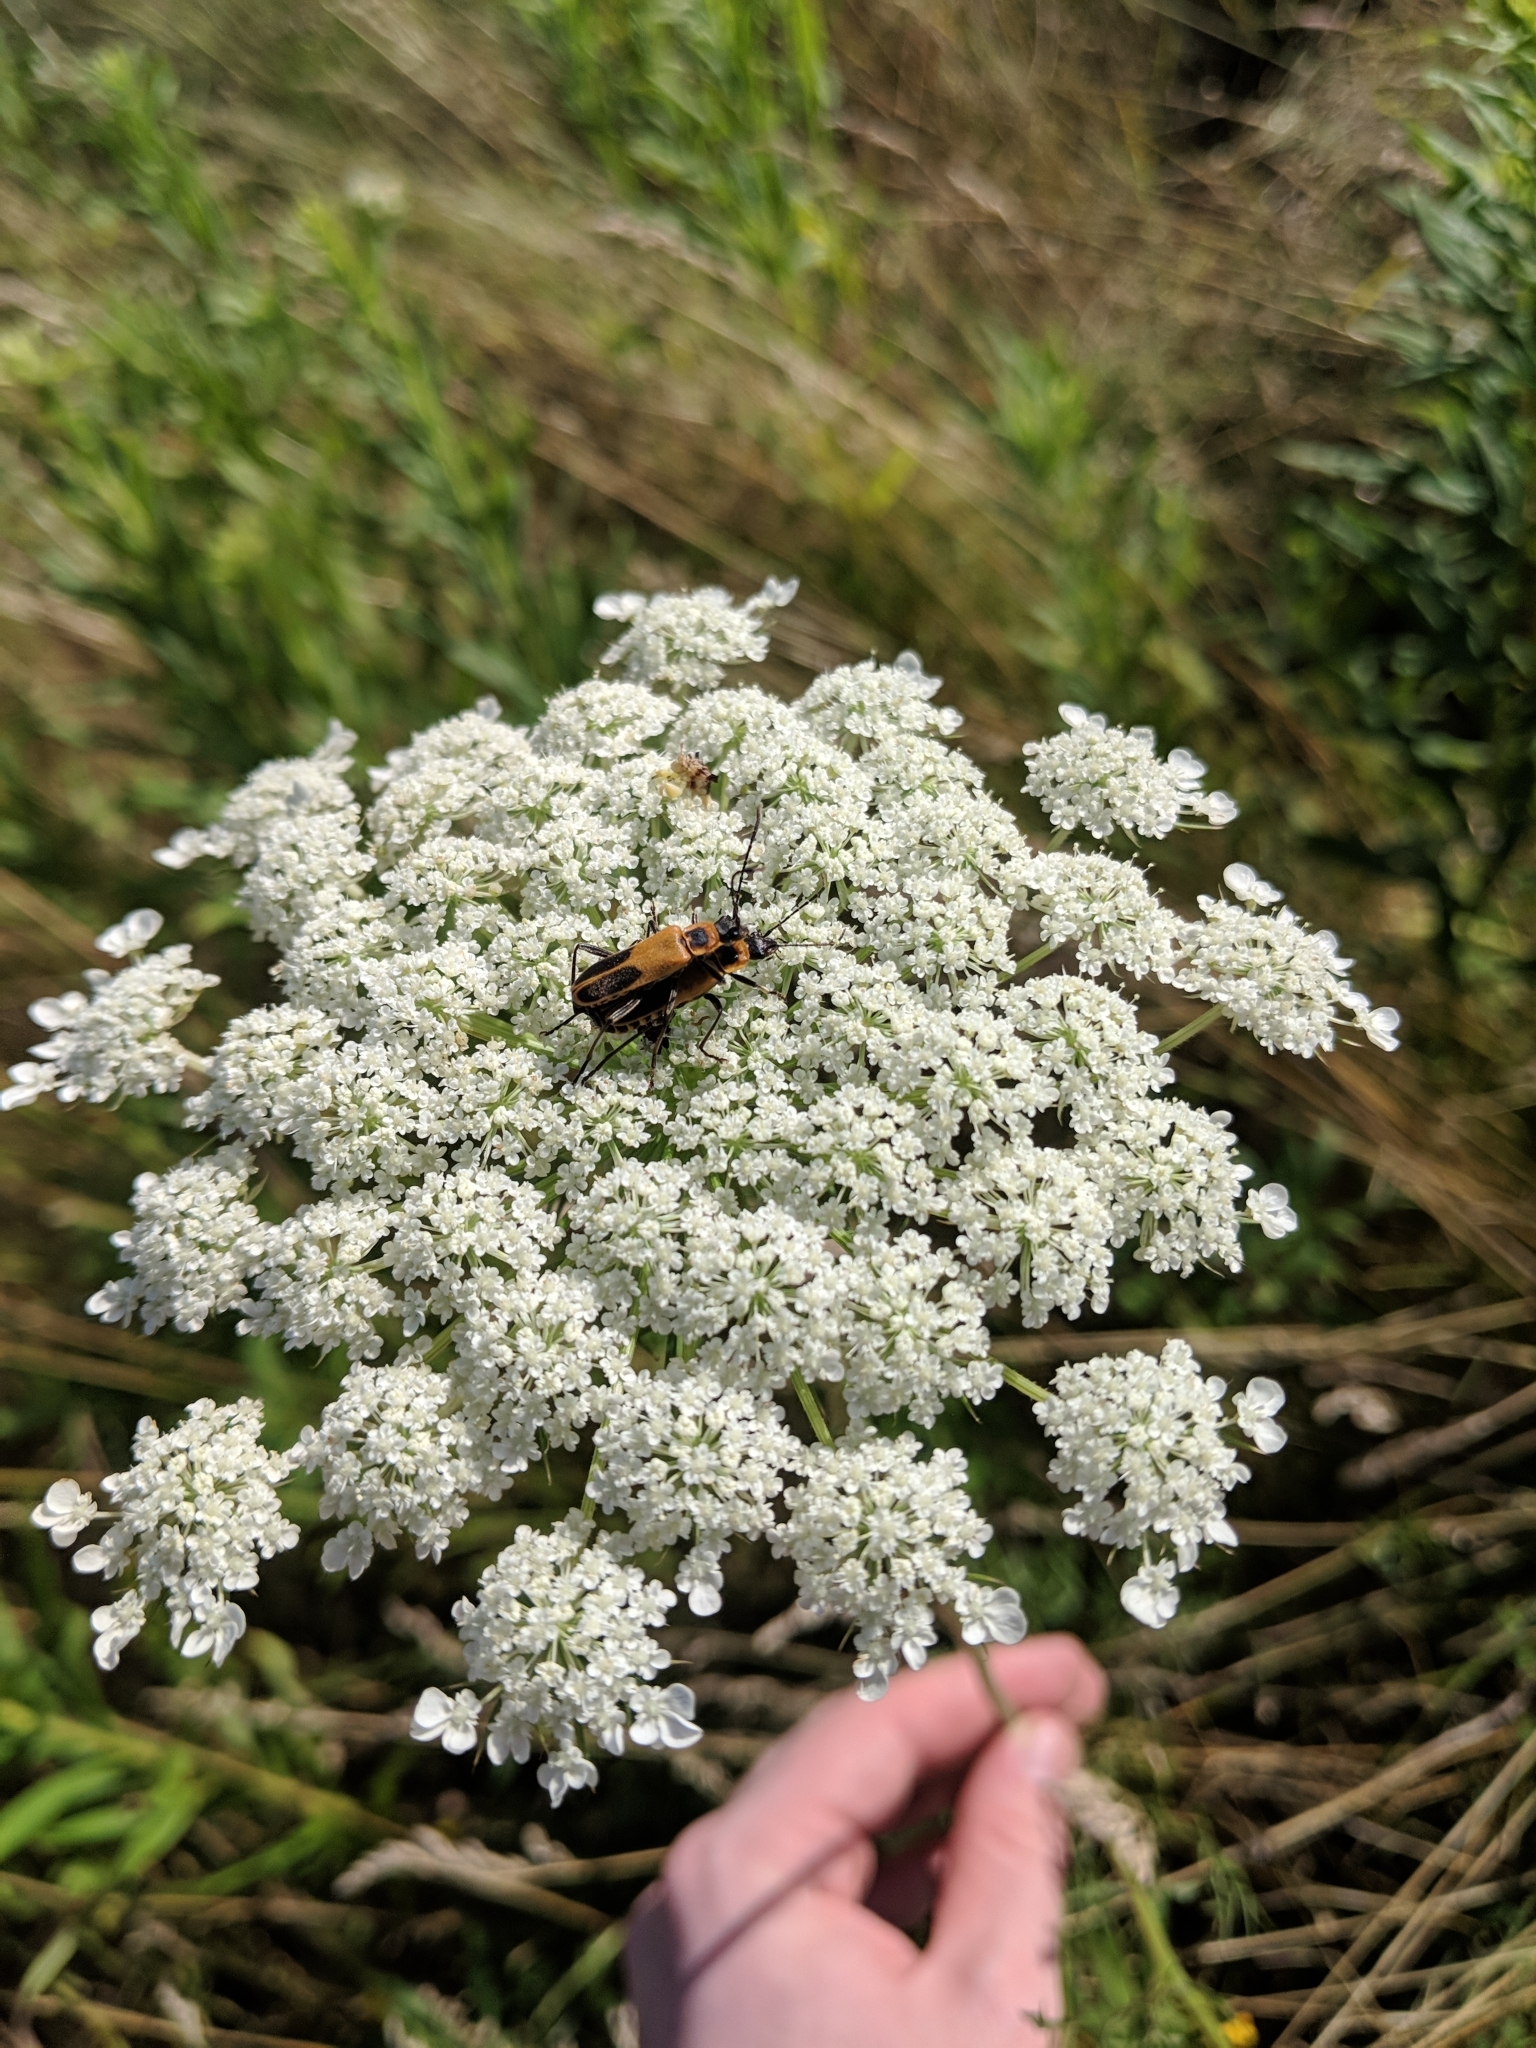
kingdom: Animalia
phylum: Arthropoda
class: Insecta
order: Coleoptera
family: Cantharidae
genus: Chauliognathus
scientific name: Chauliognathus pensylvanicus
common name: Goldenrod soldier beetle
